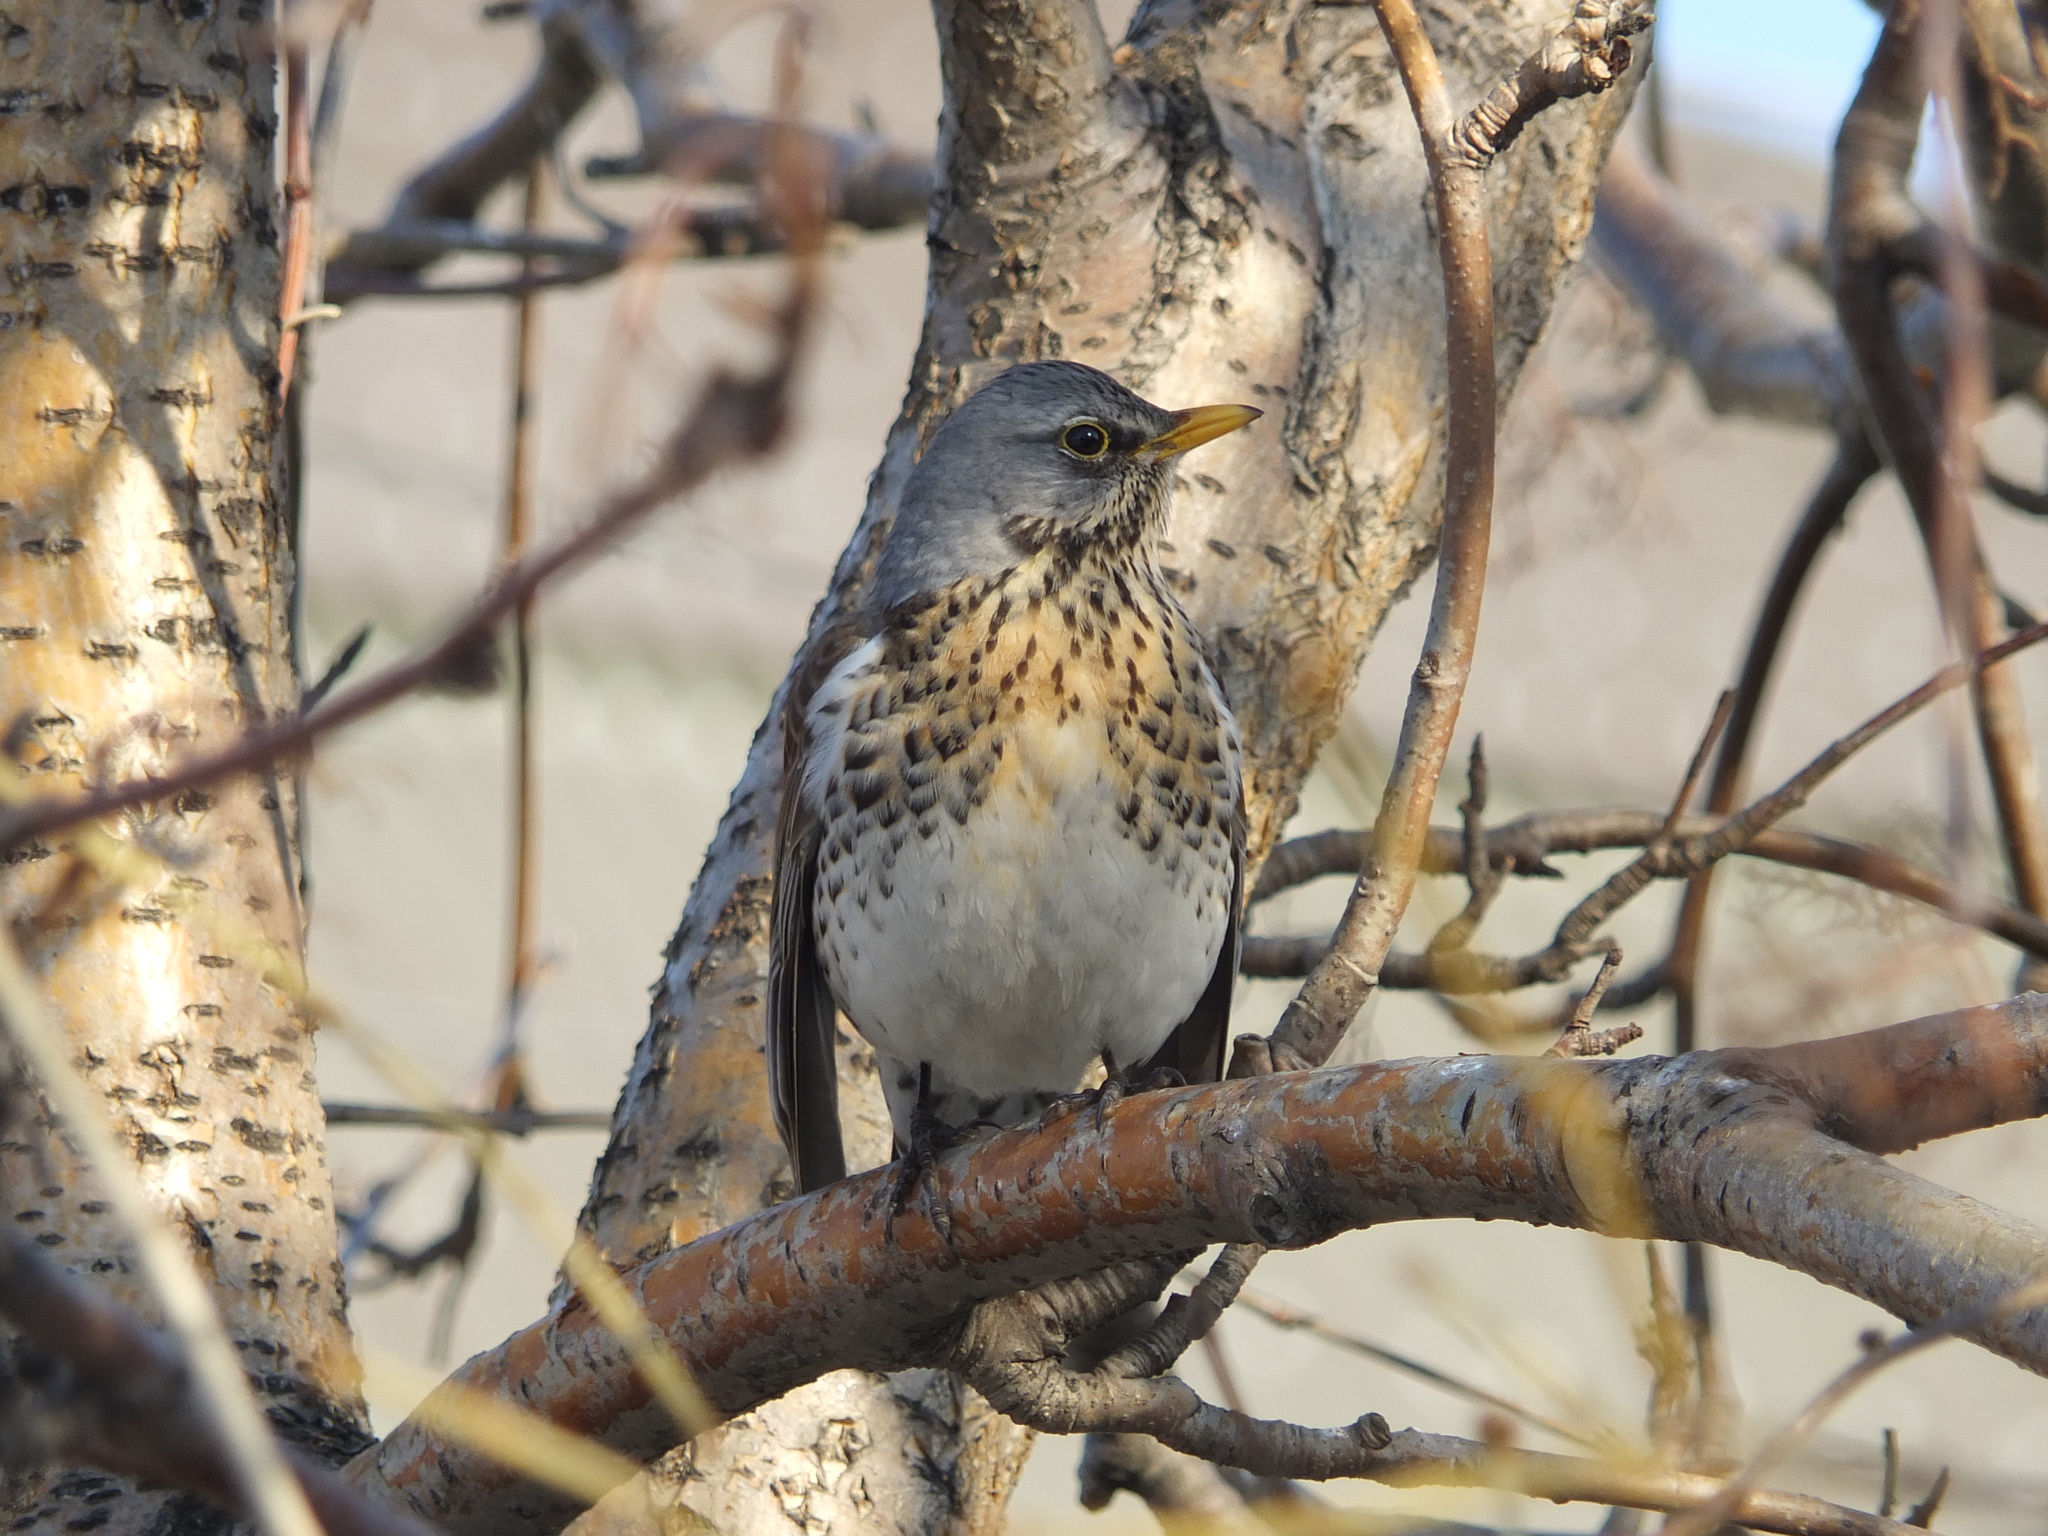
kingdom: Animalia
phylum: Chordata
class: Aves
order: Passeriformes
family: Turdidae
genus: Turdus
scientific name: Turdus pilaris
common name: Fieldfare
